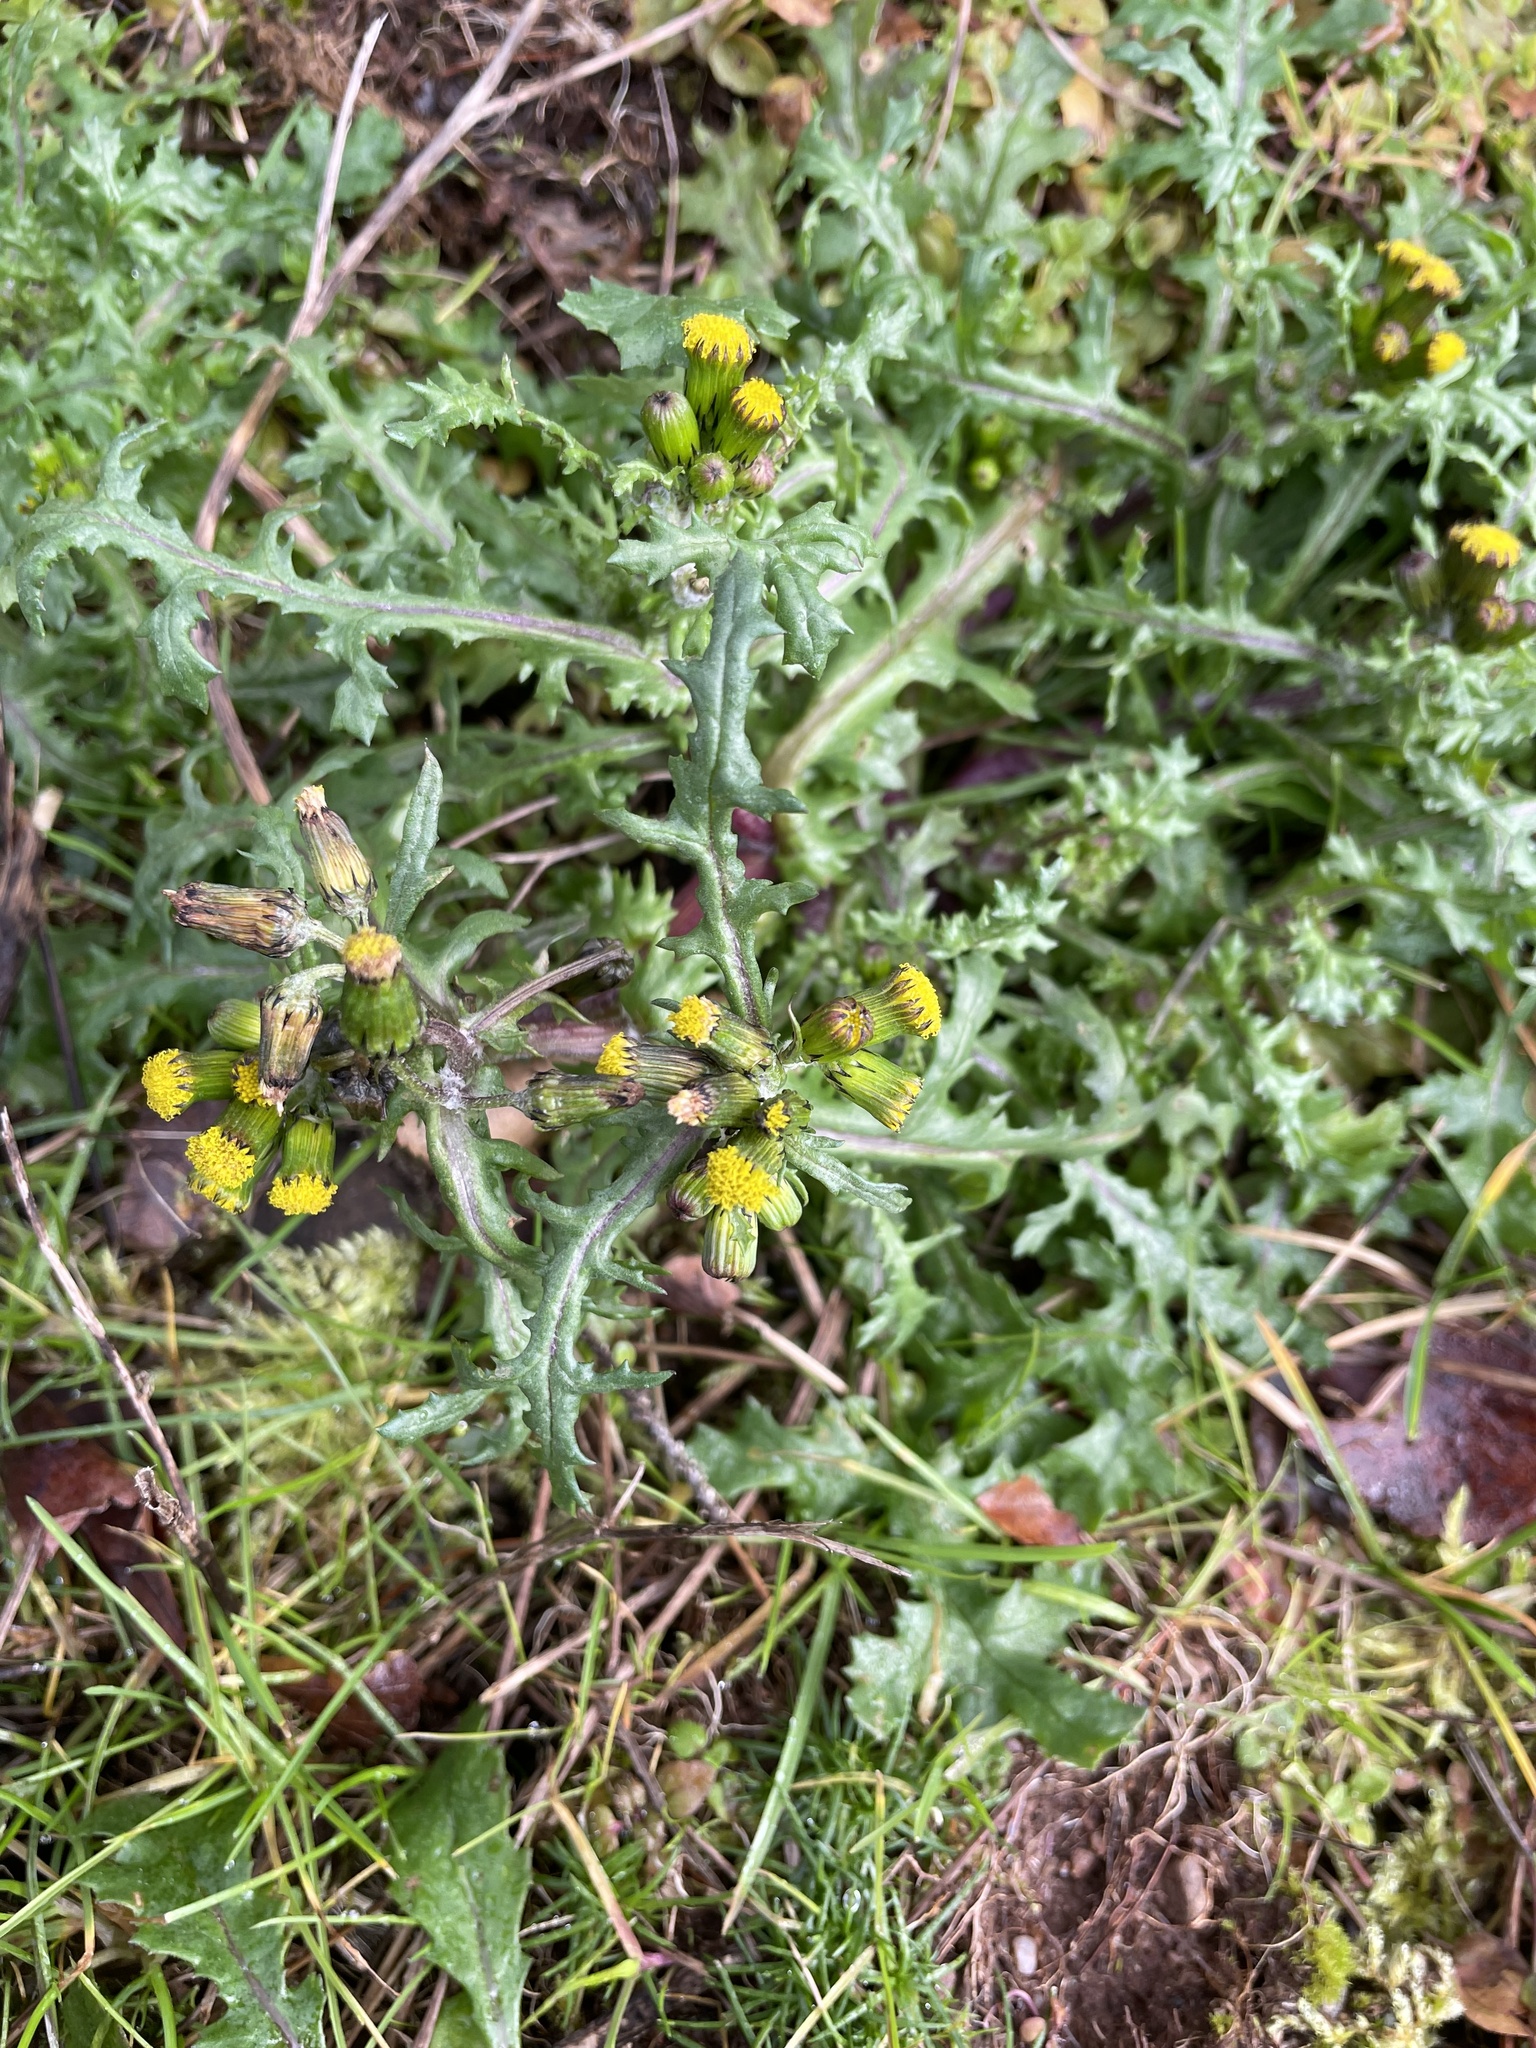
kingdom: Plantae
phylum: Tracheophyta
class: Magnoliopsida
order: Asterales
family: Asteraceae
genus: Senecio
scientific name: Senecio vulgaris
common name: Old-man-in-the-spring
